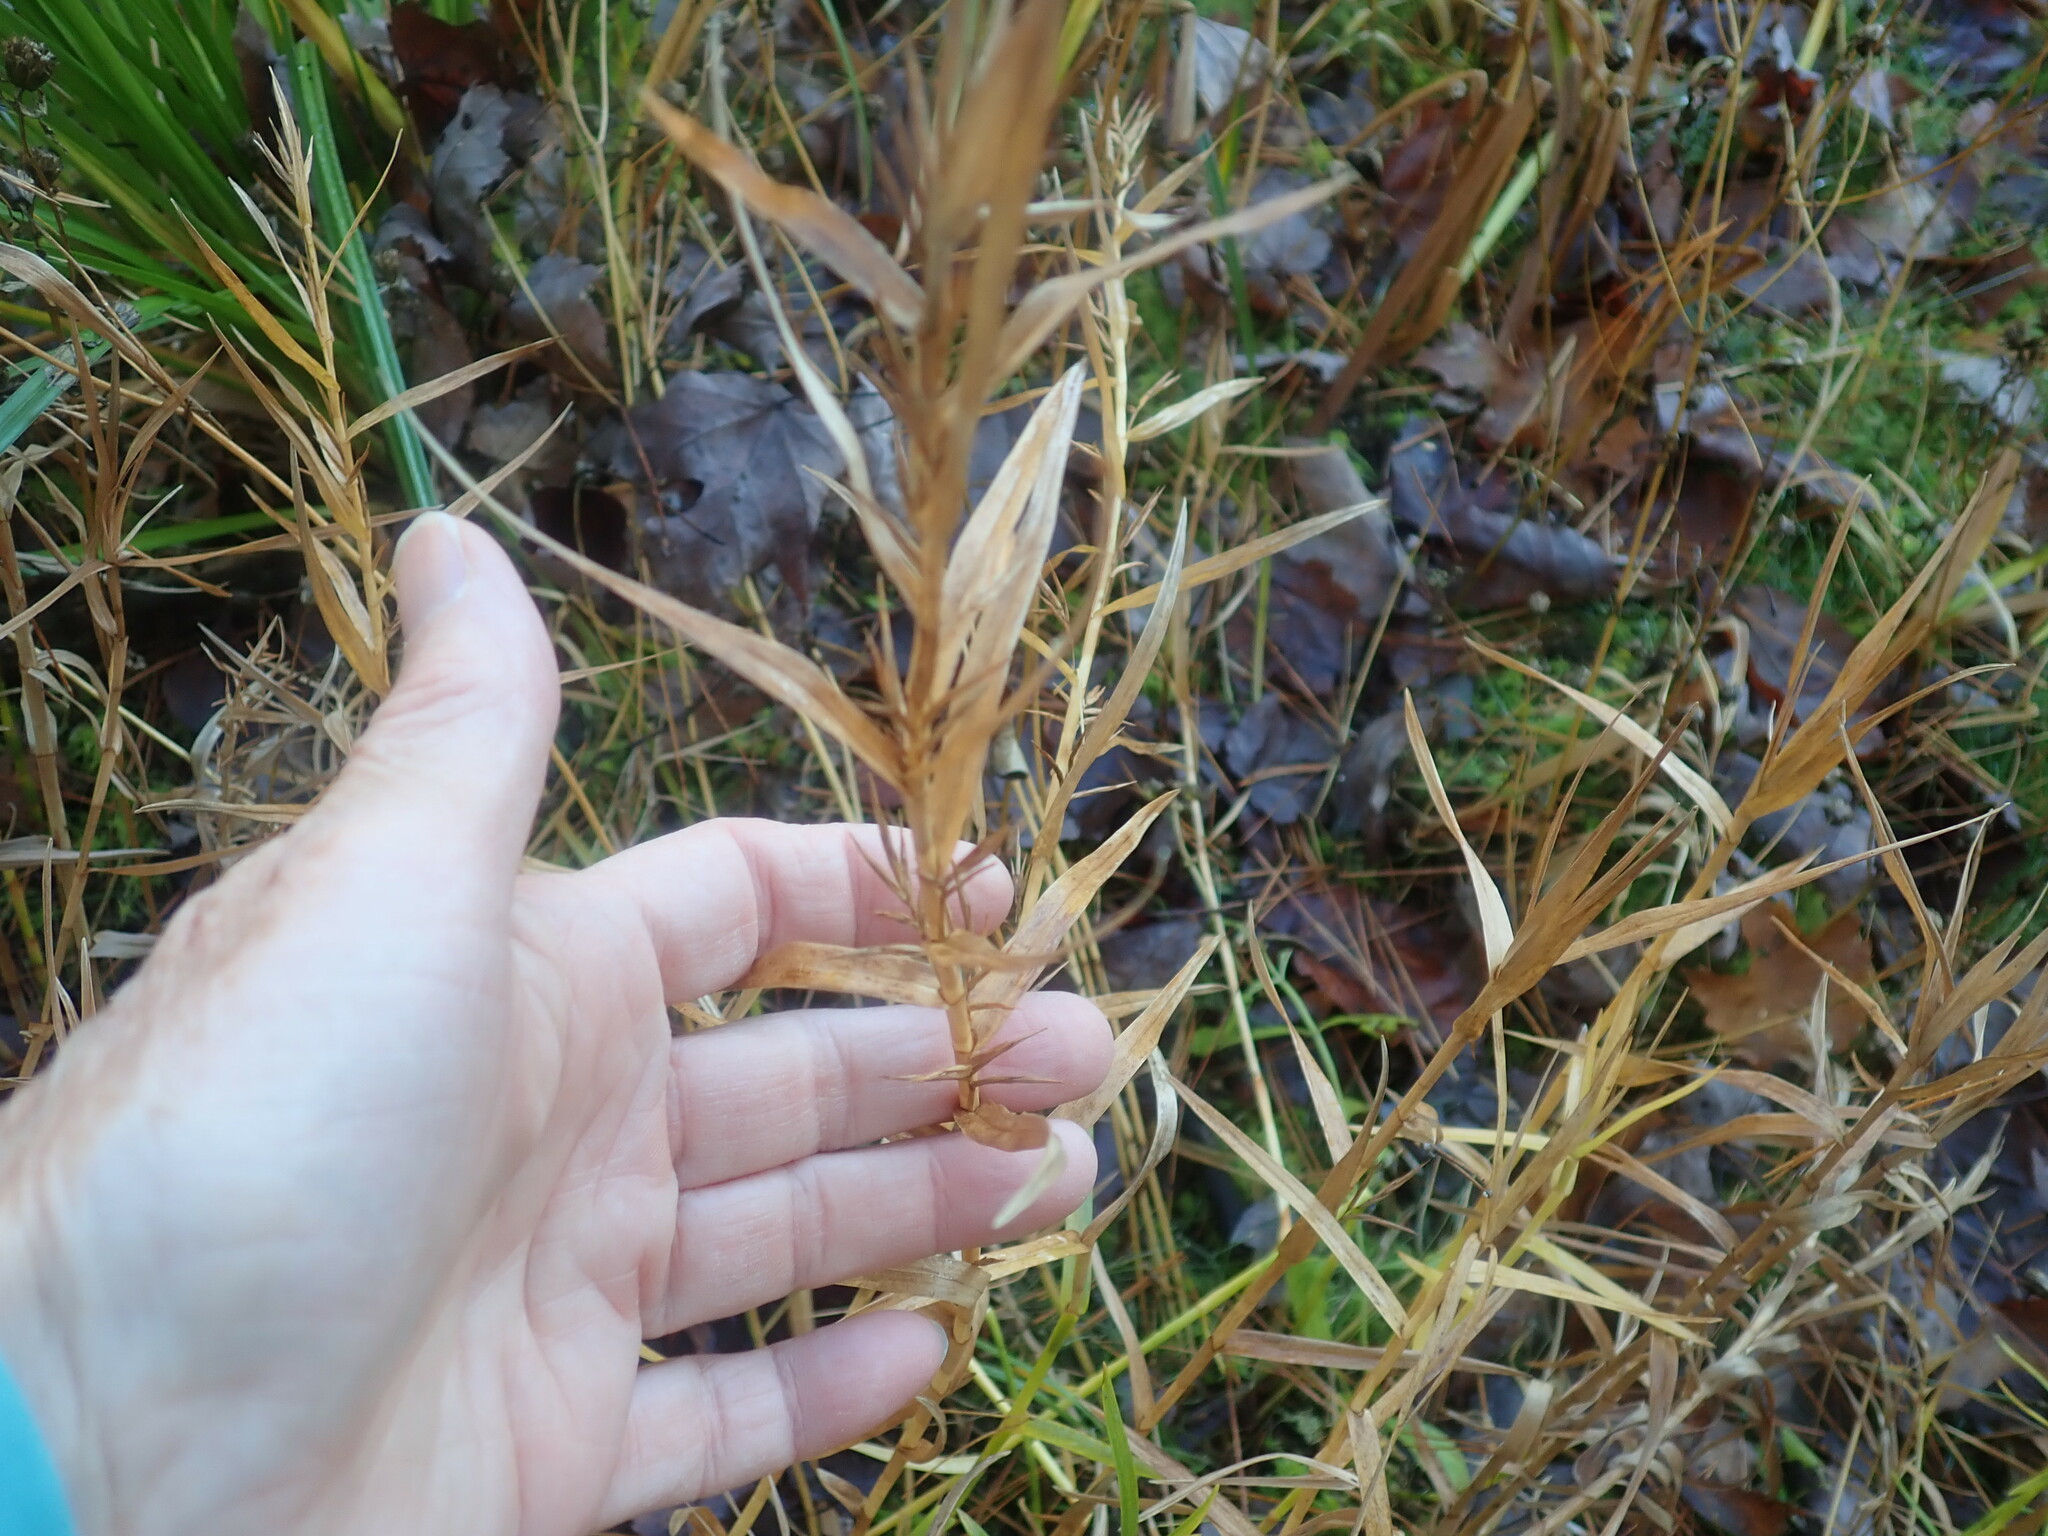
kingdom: Plantae
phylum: Tracheophyta
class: Liliopsida
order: Poales
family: Cyperaceae
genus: Dulichium
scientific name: Dulichium arundinaceum
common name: Three-way sedge
